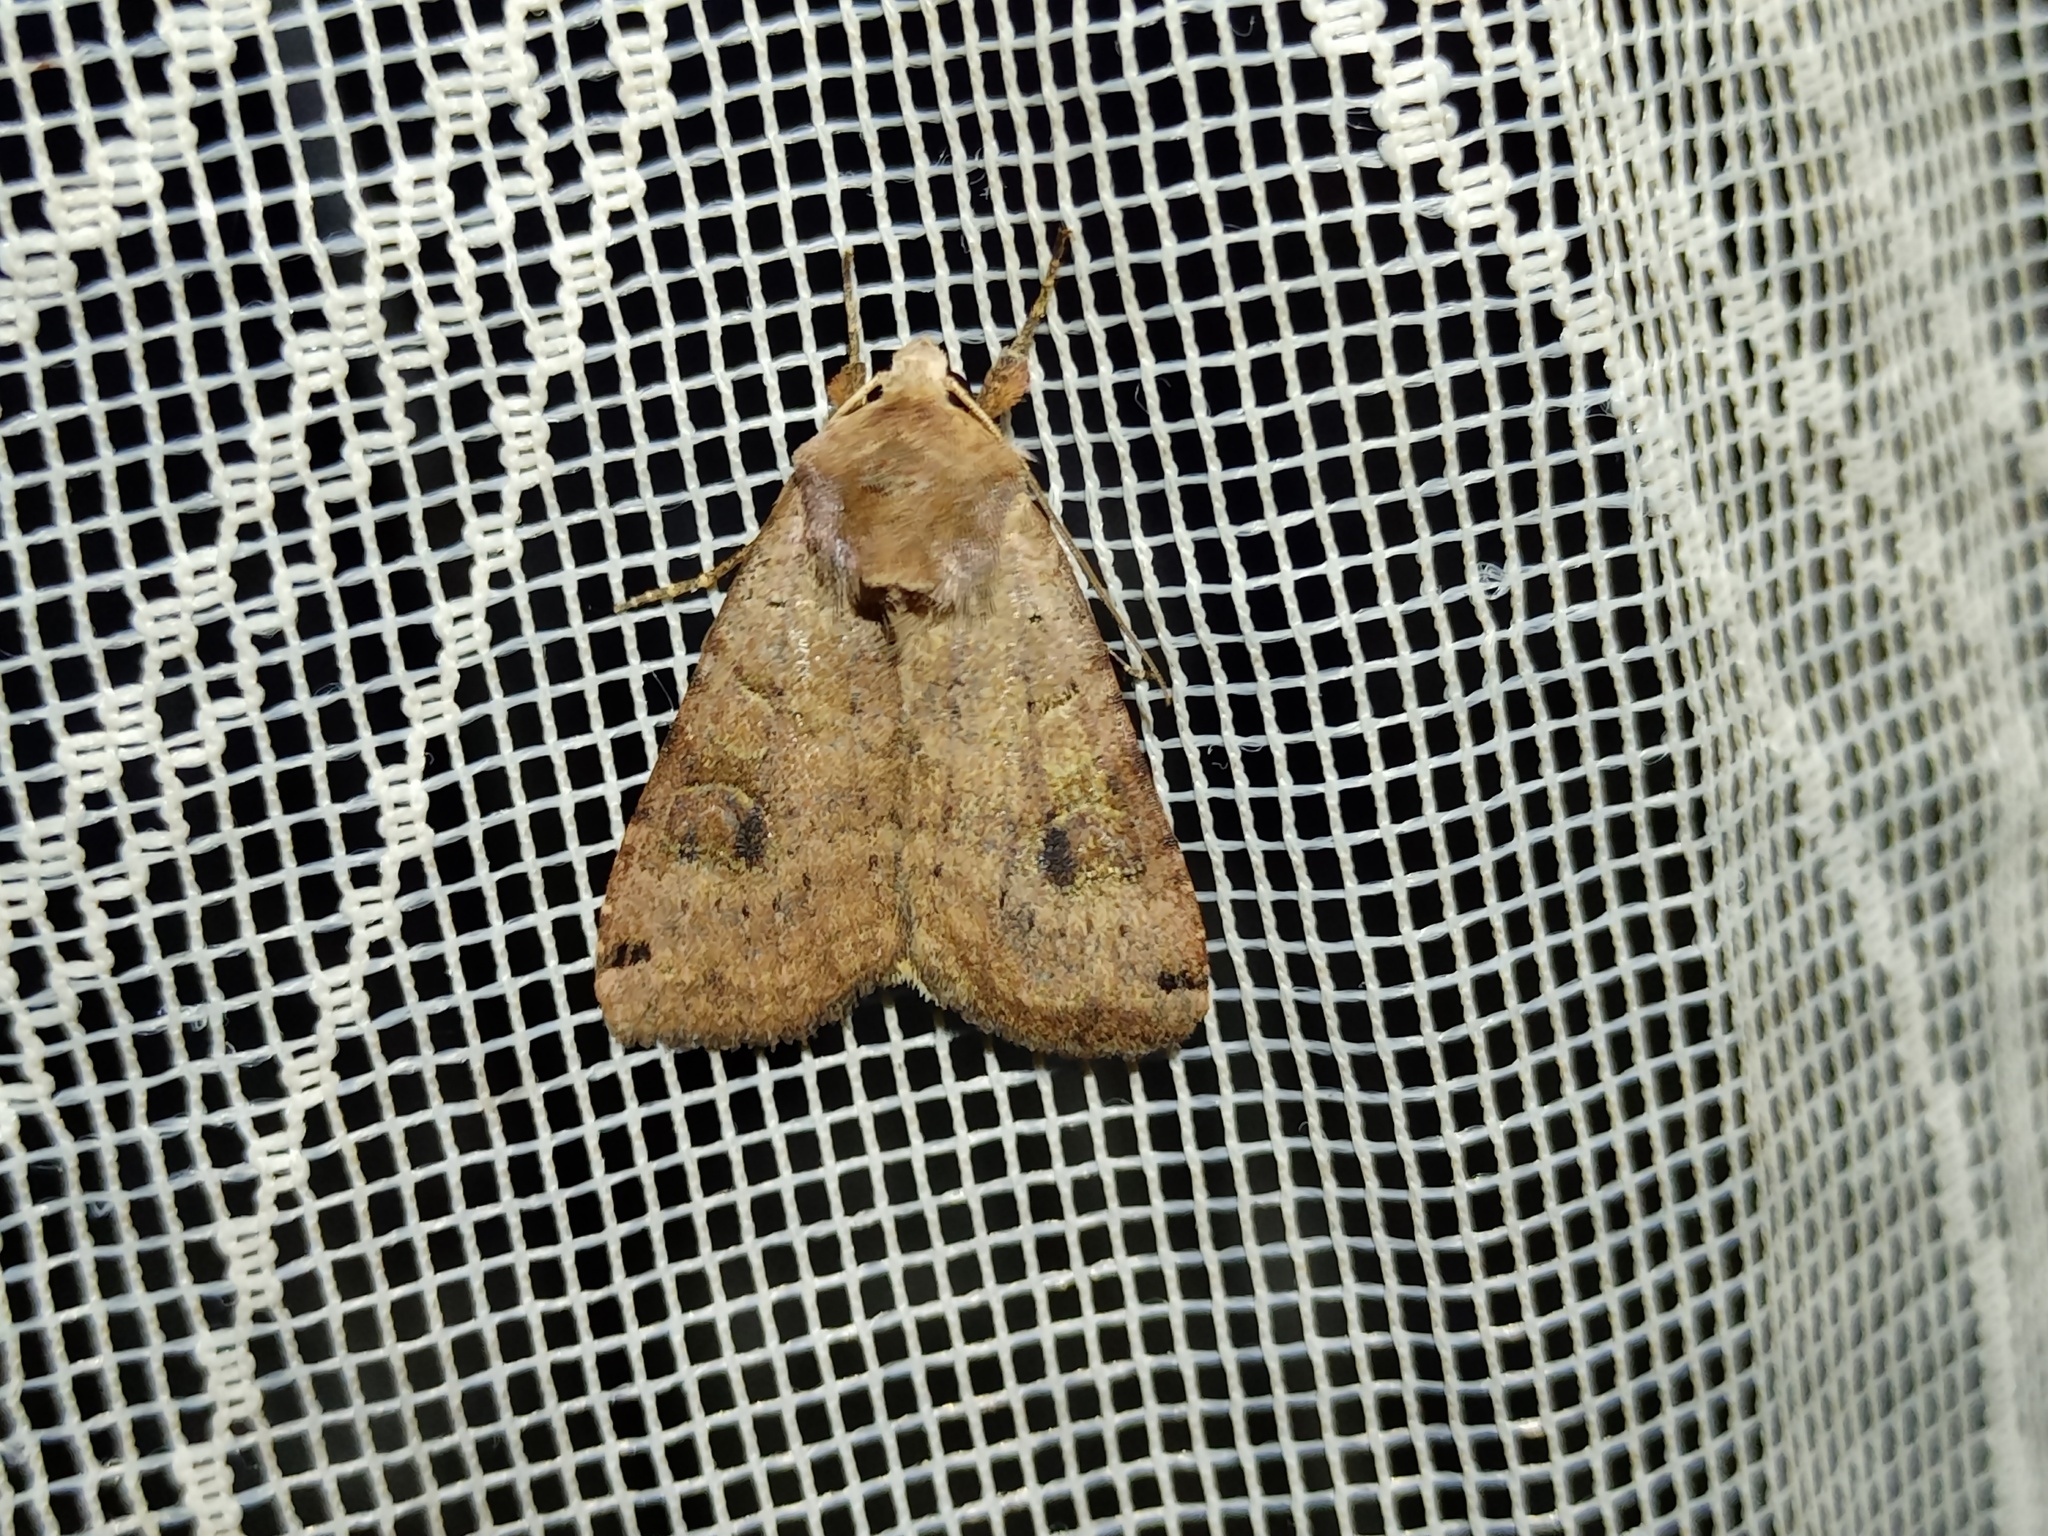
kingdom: Animalia
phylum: Arthropoda
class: Insecta
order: Lepidoptera
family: Noctuidae
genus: Xestia
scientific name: Xestia baja
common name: Dotted clay
